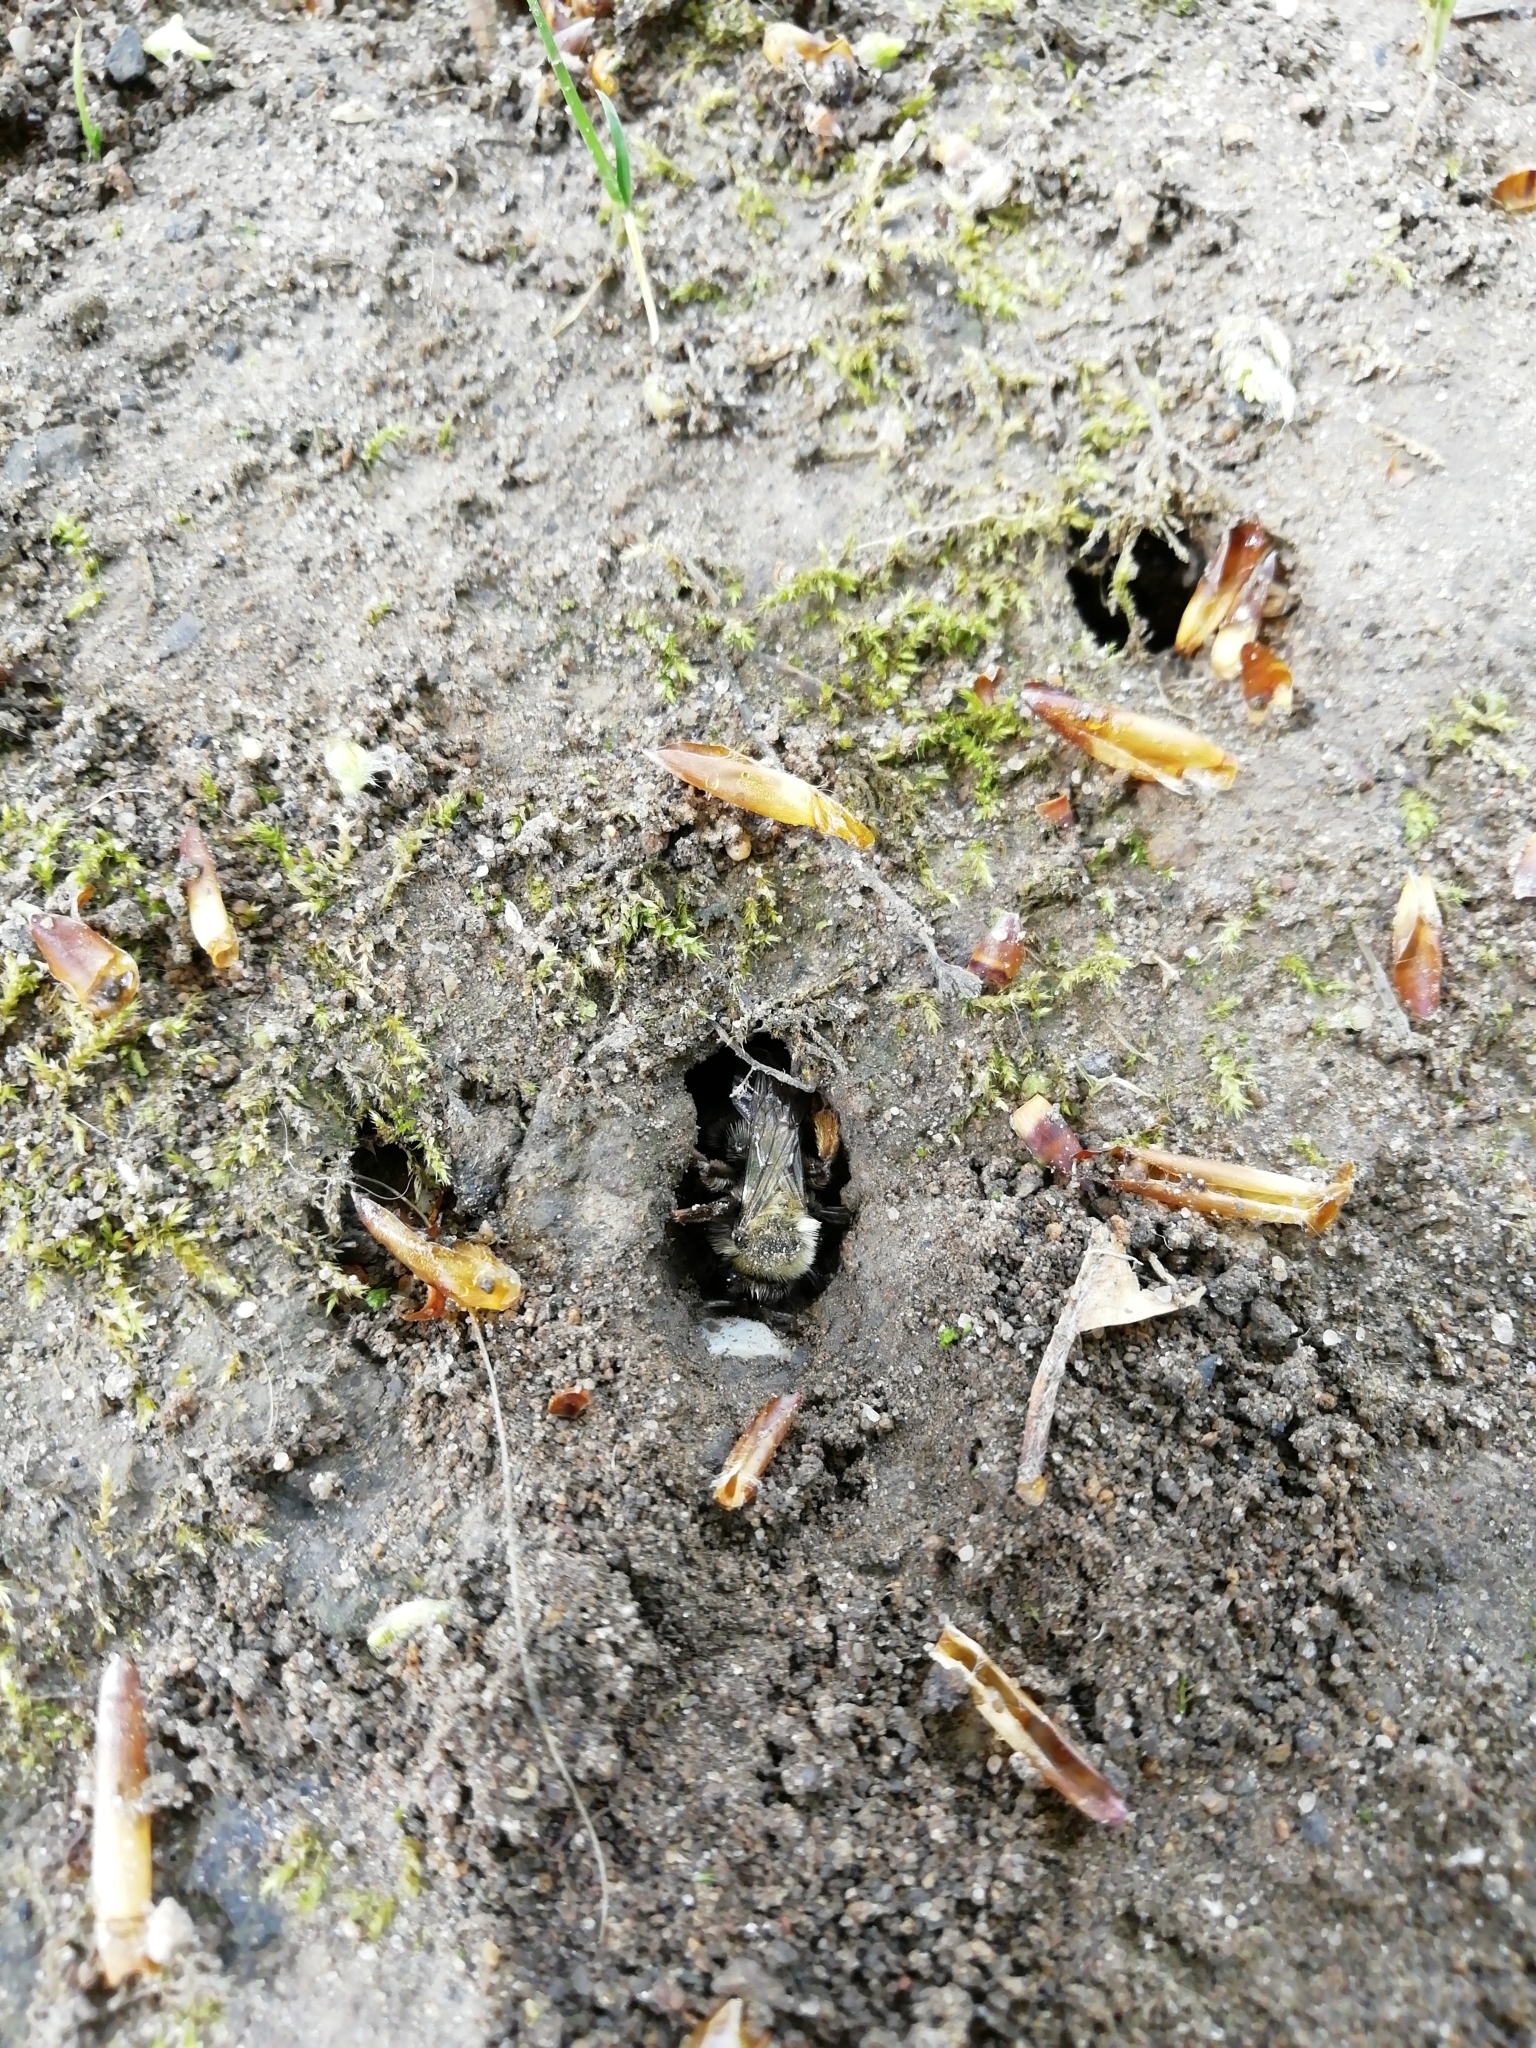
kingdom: Animalia
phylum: Arthropoda
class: Insecta
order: Hymenoptera
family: Andrenidae
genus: Andrena
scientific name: Andrena clarkella
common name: Clarke's mining bee
